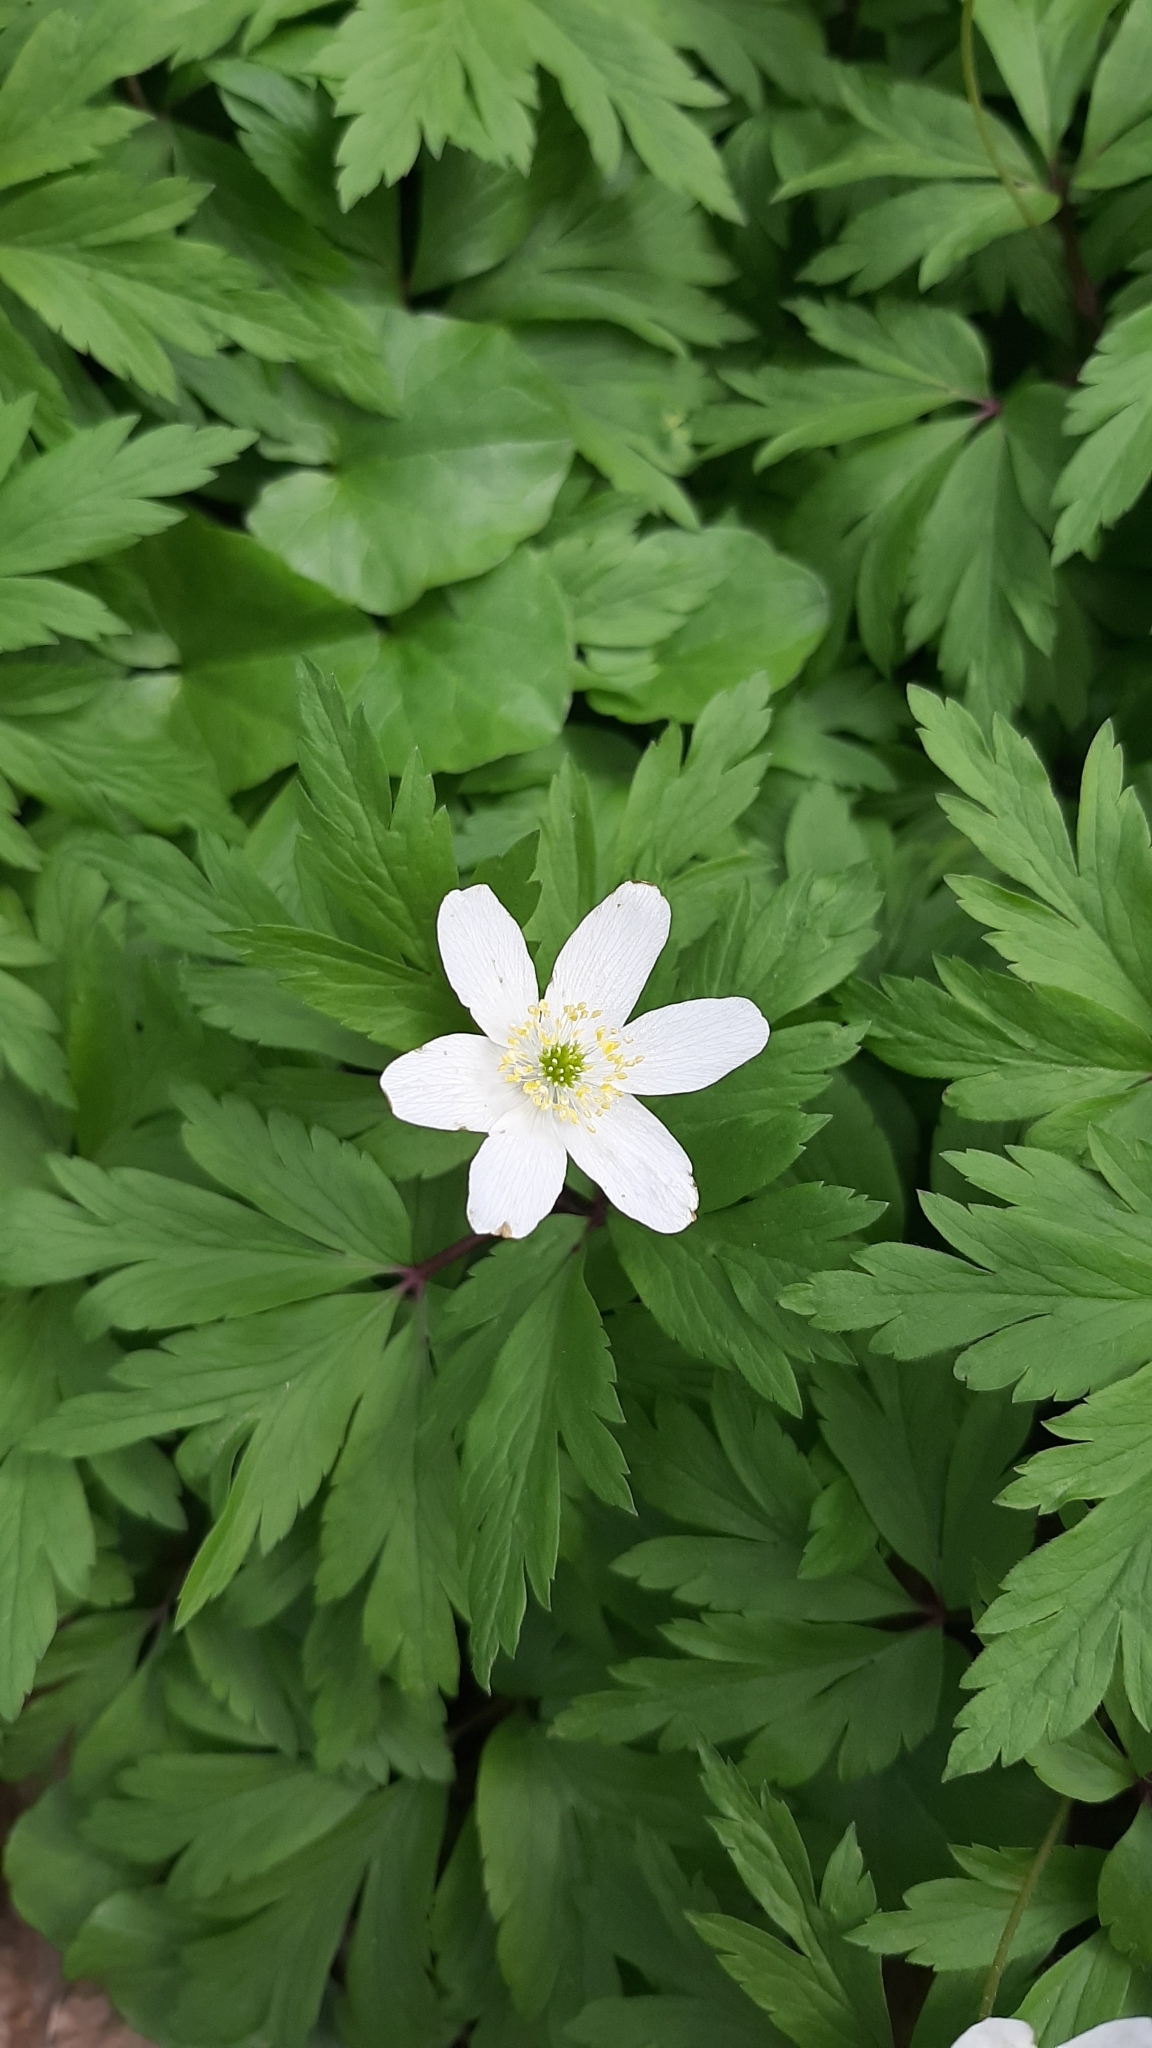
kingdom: Plantae
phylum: Tracheophyta
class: Magnoliopsida
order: Ranunculales
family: Ranunculaceae
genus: Anemone
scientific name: Anemone nemorosa
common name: Wood anemone
